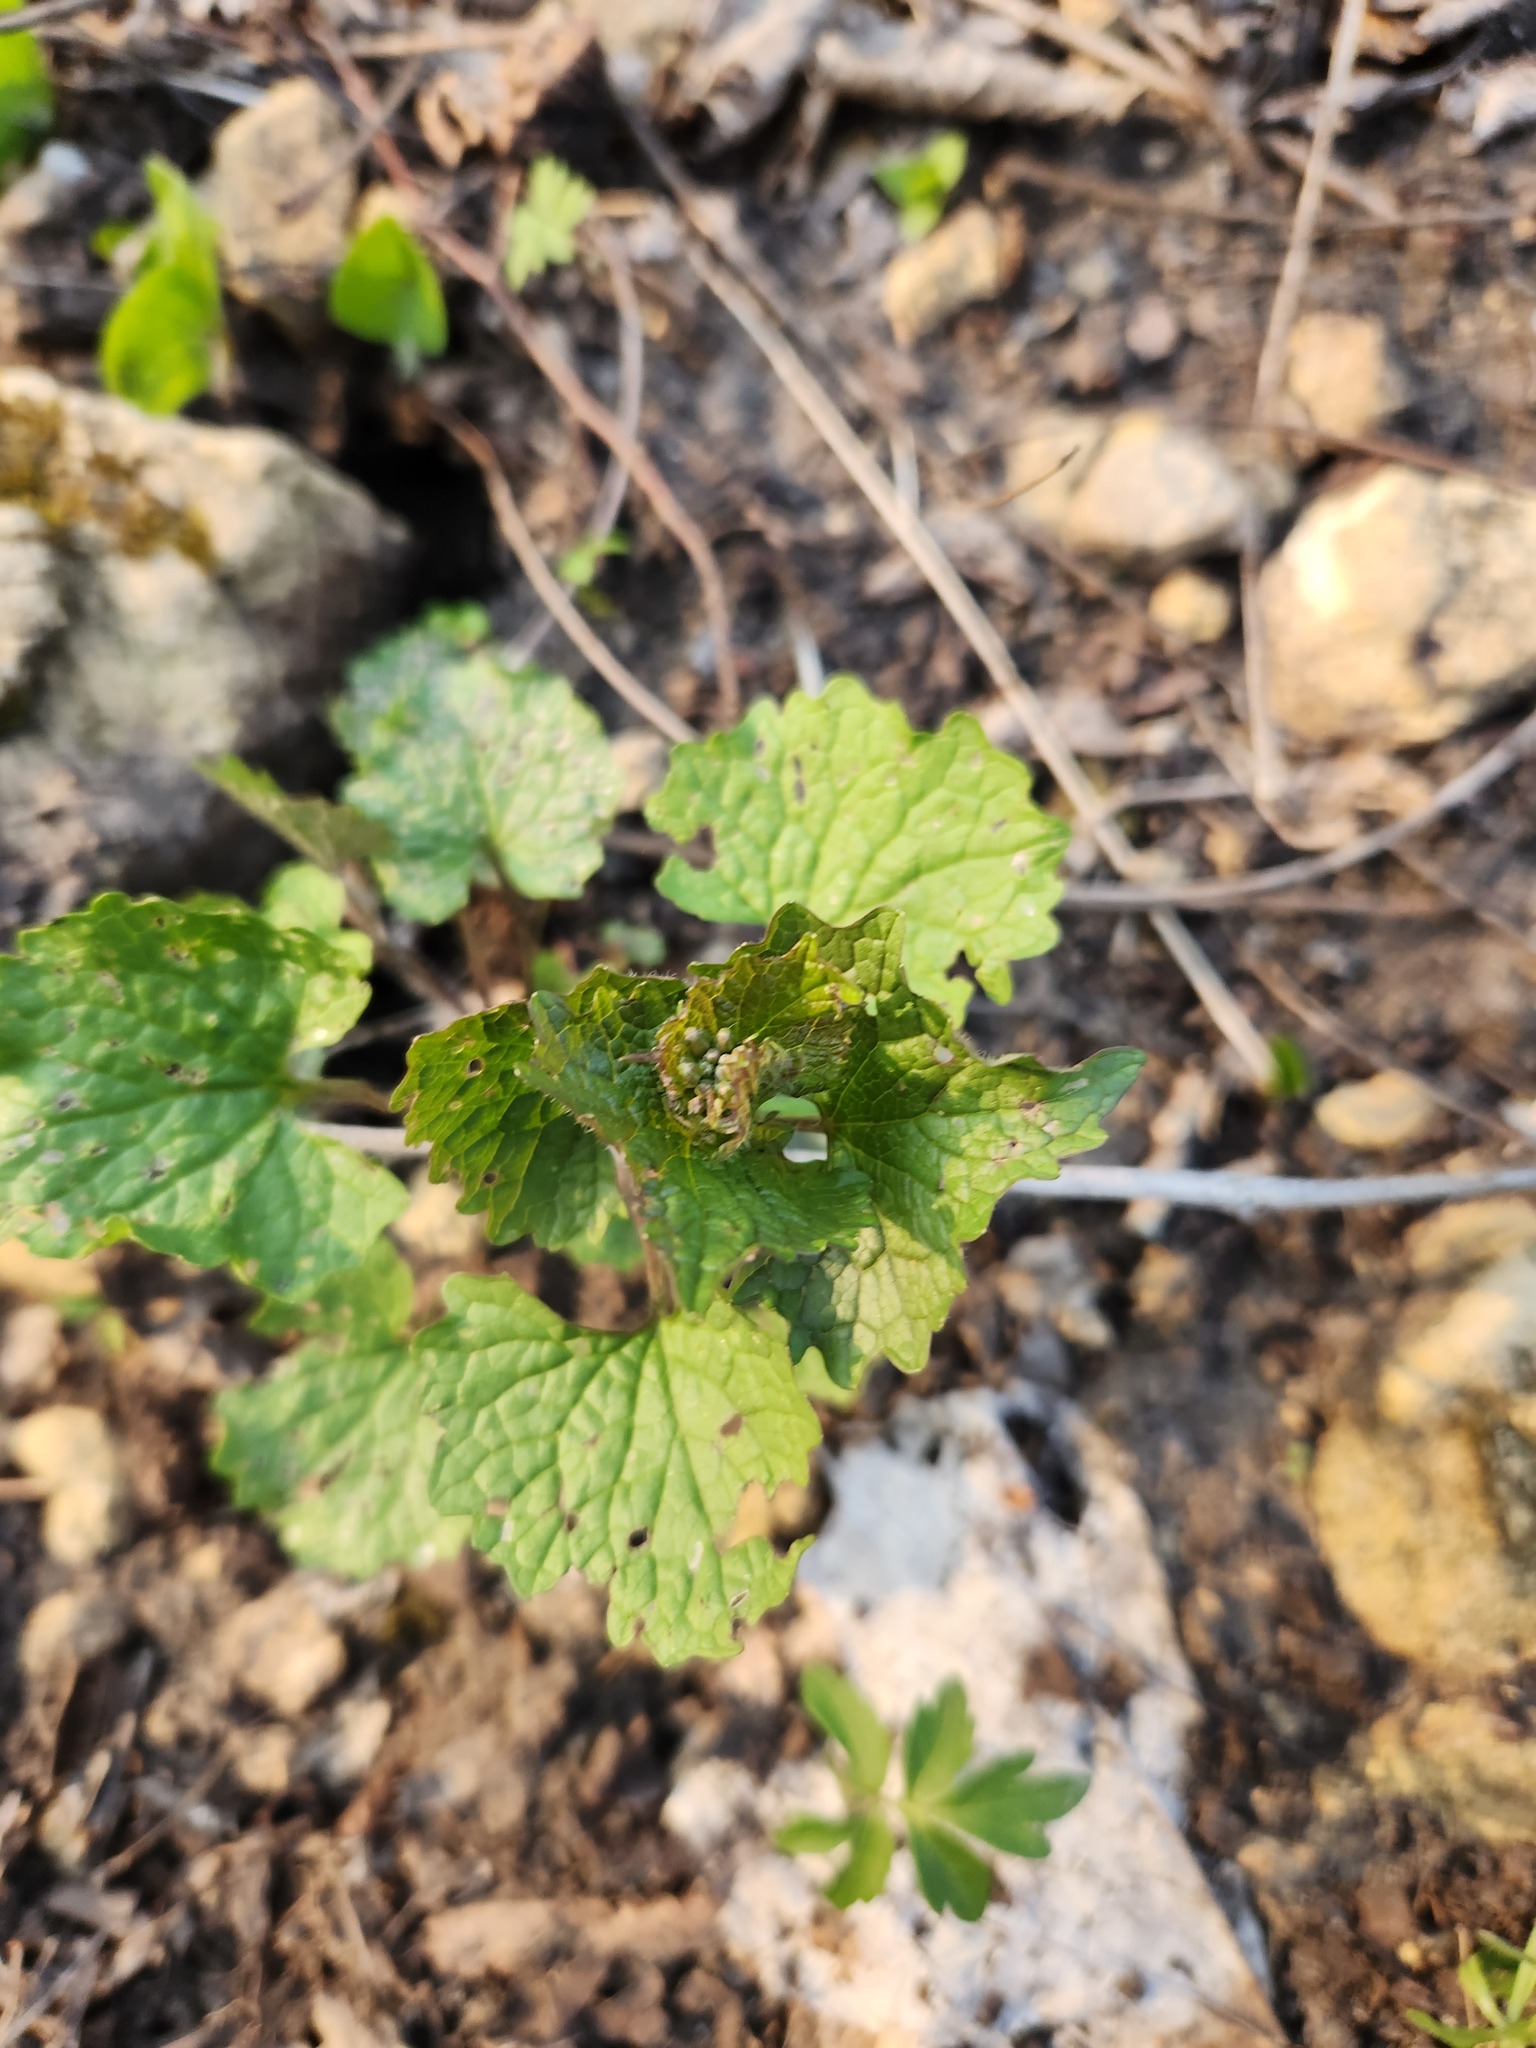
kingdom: Plantae
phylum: Tracheophyta
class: Magnoliopsida
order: Brassicales
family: Brassicaceae
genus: Alliaria
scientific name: Alliaria petiolata
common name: Garlic mustard
